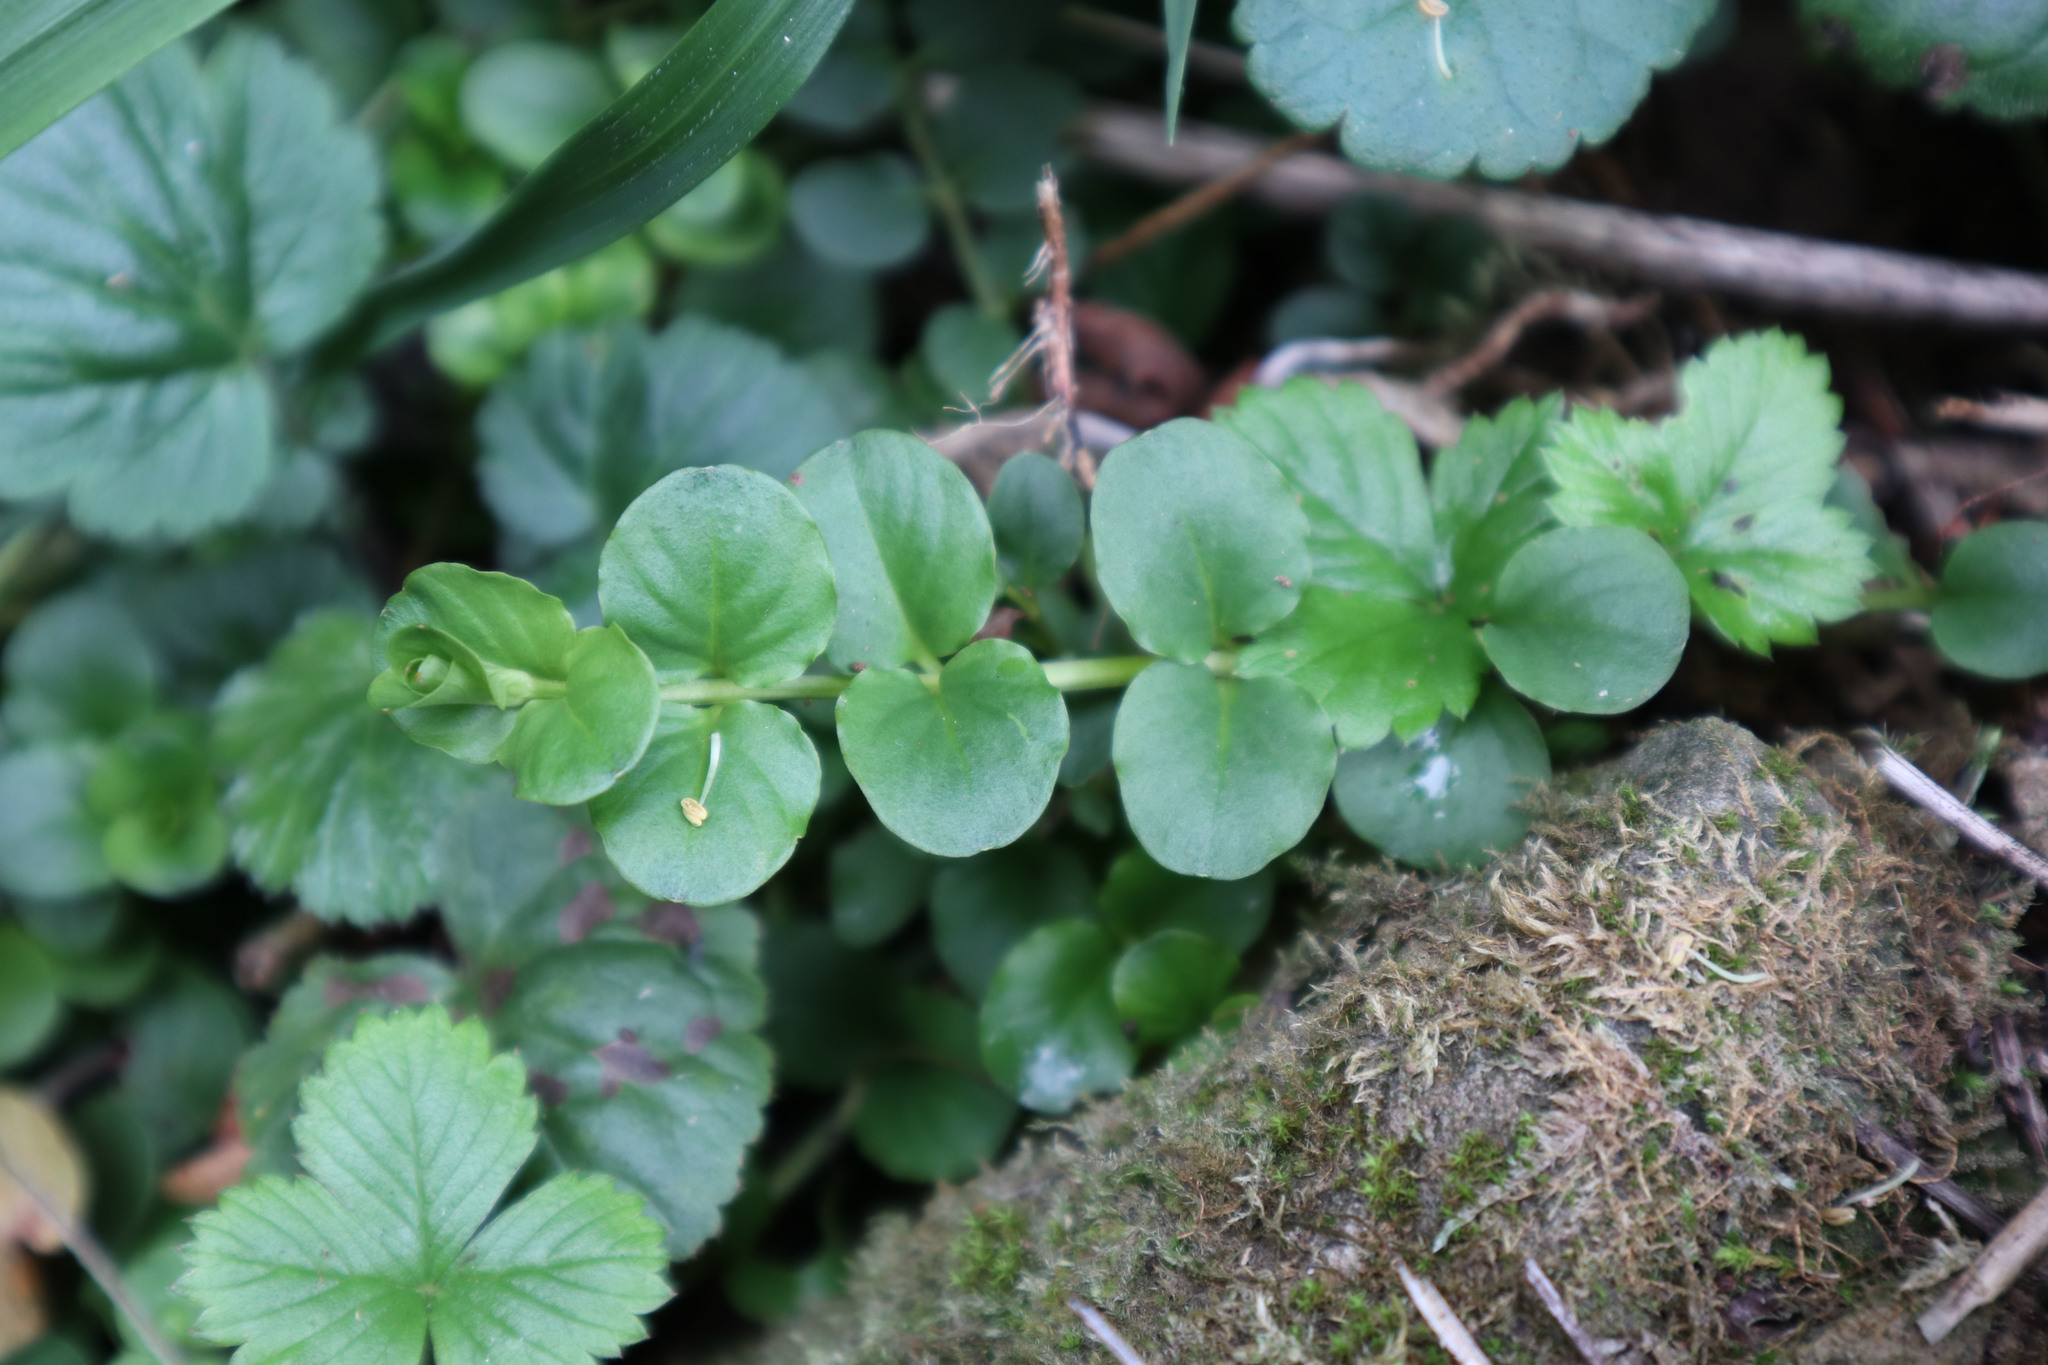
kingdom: Plantae
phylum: Tracheophyta
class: Magnoliopsida
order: Ericales
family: Primulaceae
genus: Lysimachia
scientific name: Lysimachia nummularia
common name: Moneywort
